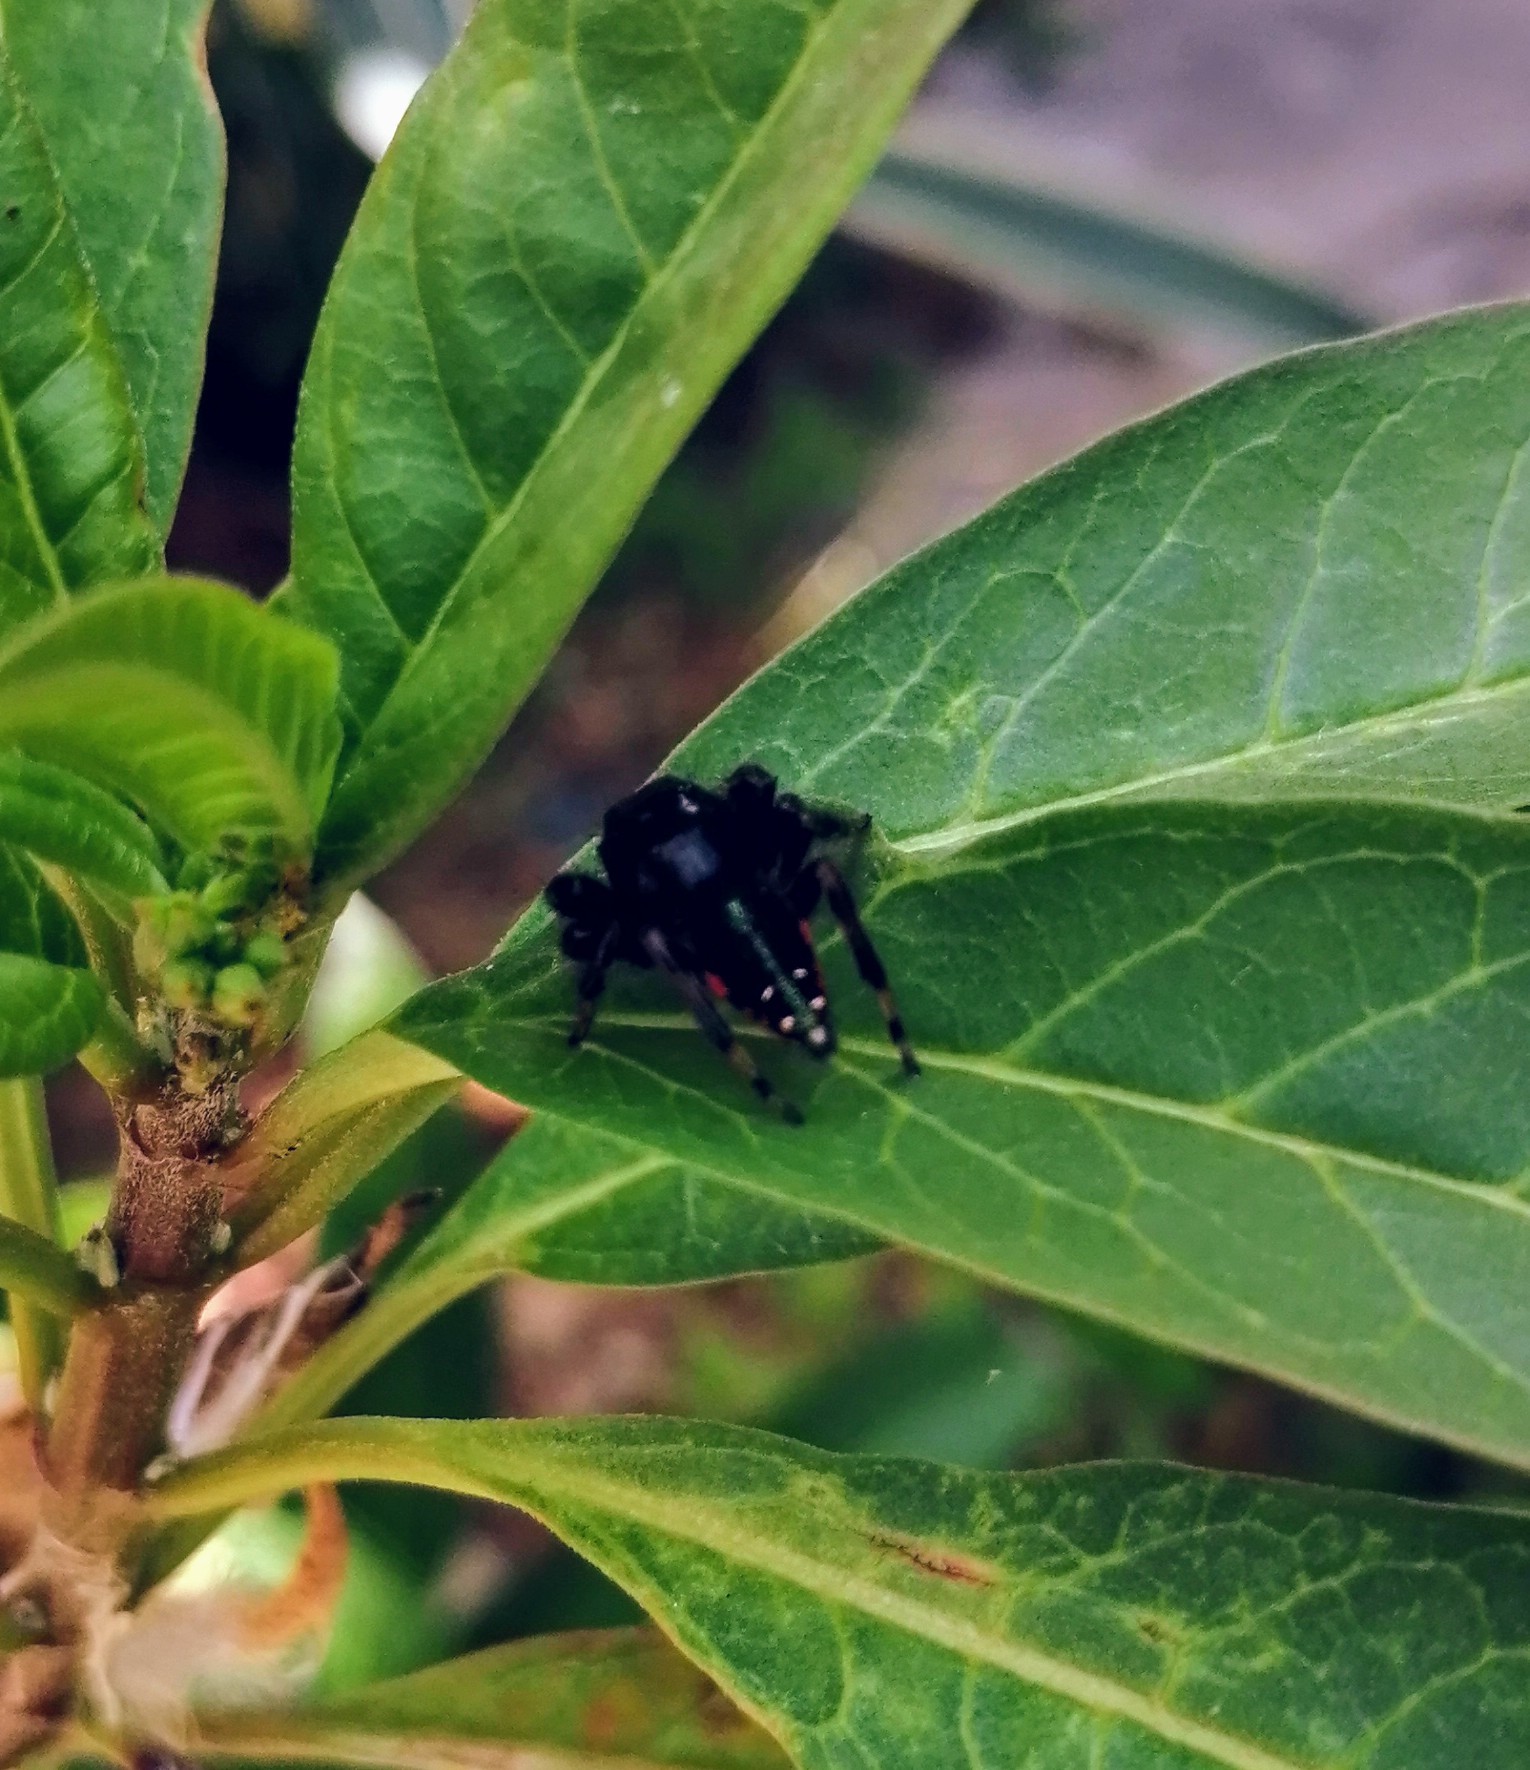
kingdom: Animalia
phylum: Arthropoda
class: Arachnida
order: Araneae
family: Salticidae
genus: Paraphidippus
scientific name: Paraphidippus funebris
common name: Jumping spiders
